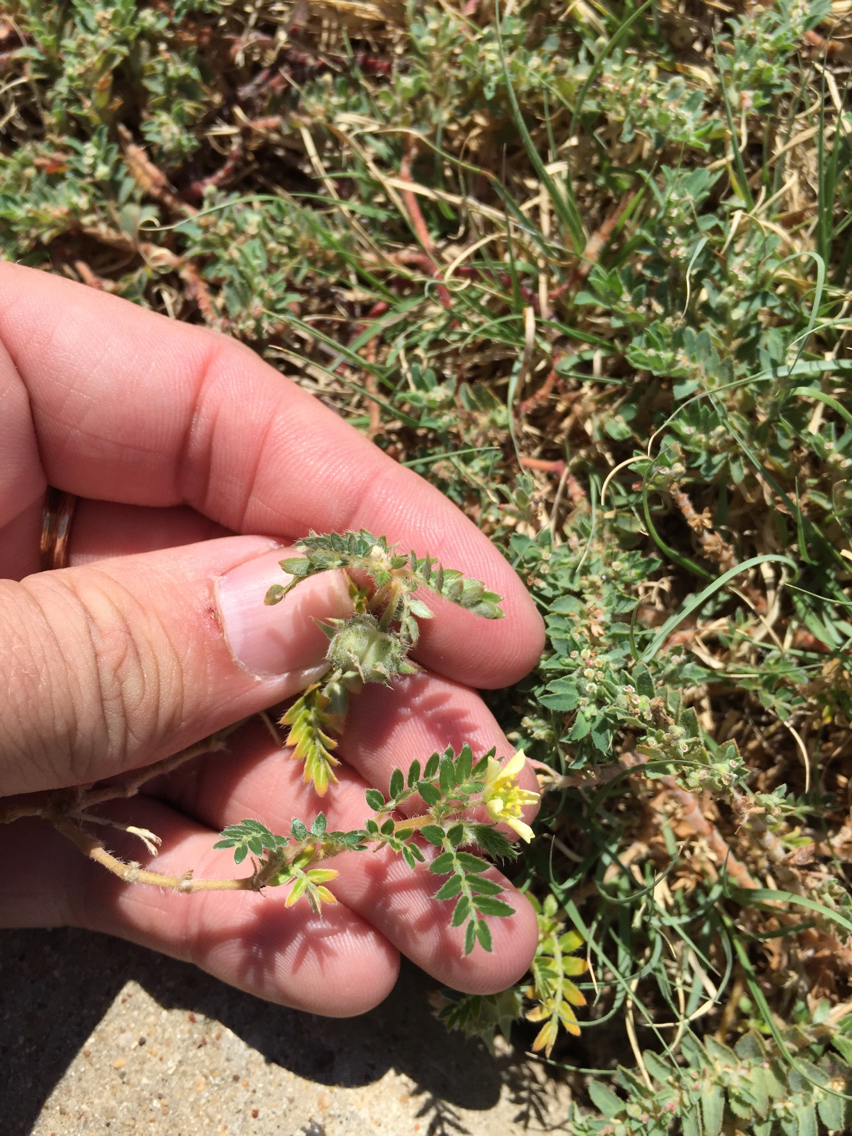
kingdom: Plantae
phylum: Tracheophyta
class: Magnoliopsida
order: Zygophyllales
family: Zygophyllaceae
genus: Tribulus
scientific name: Tribulus terrestris
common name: Puncturevine
